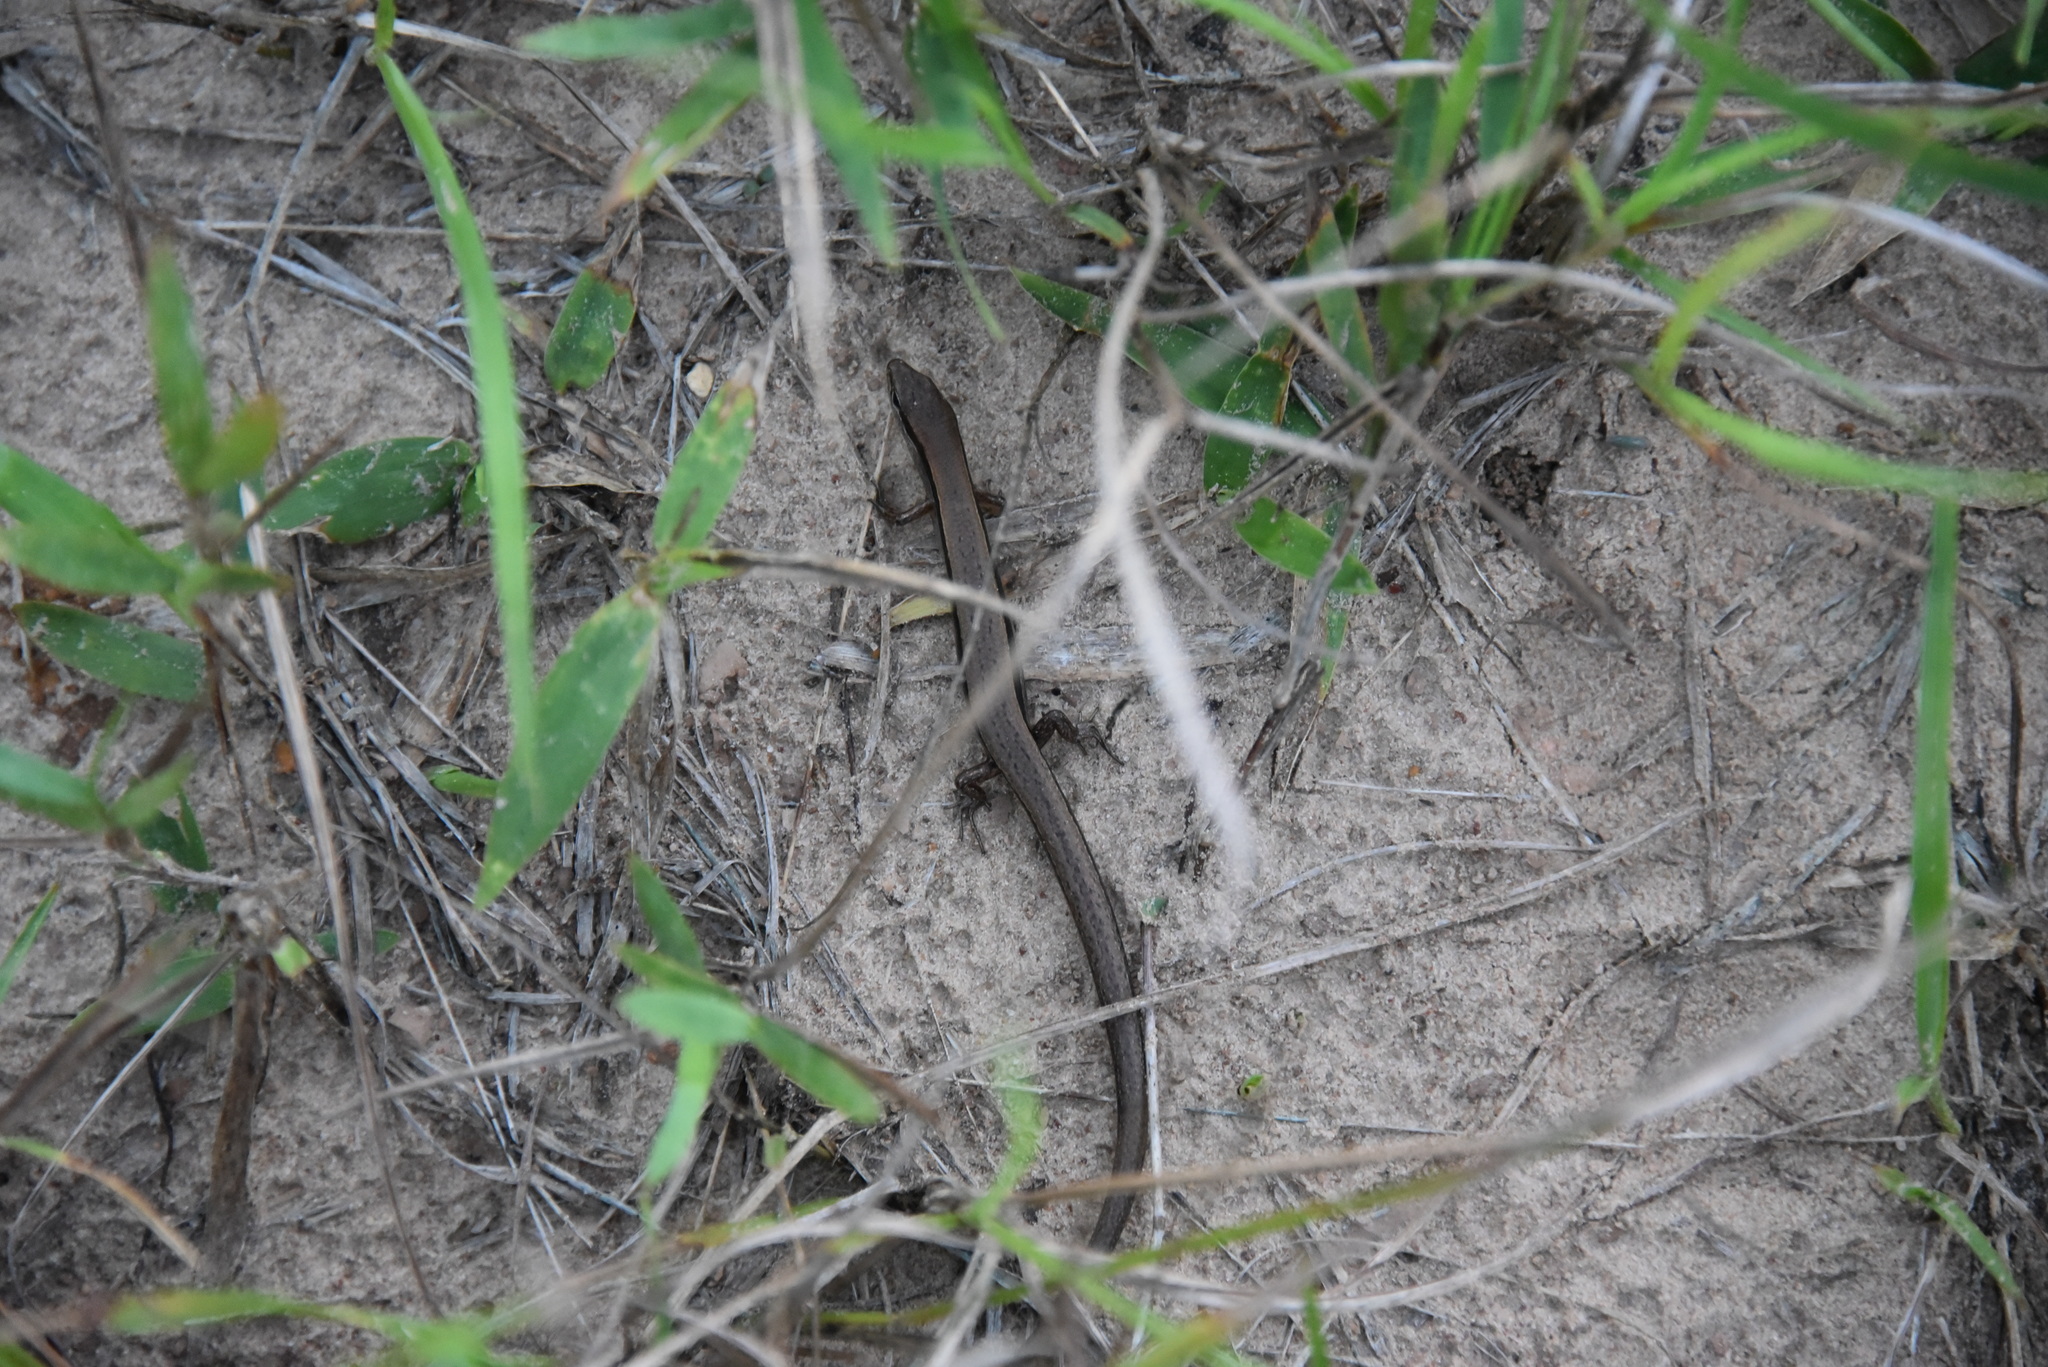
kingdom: Animalia
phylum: Chordata
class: Squamata
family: Scincidae
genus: Scincella
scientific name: Scincella lateralis
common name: Ground skink
